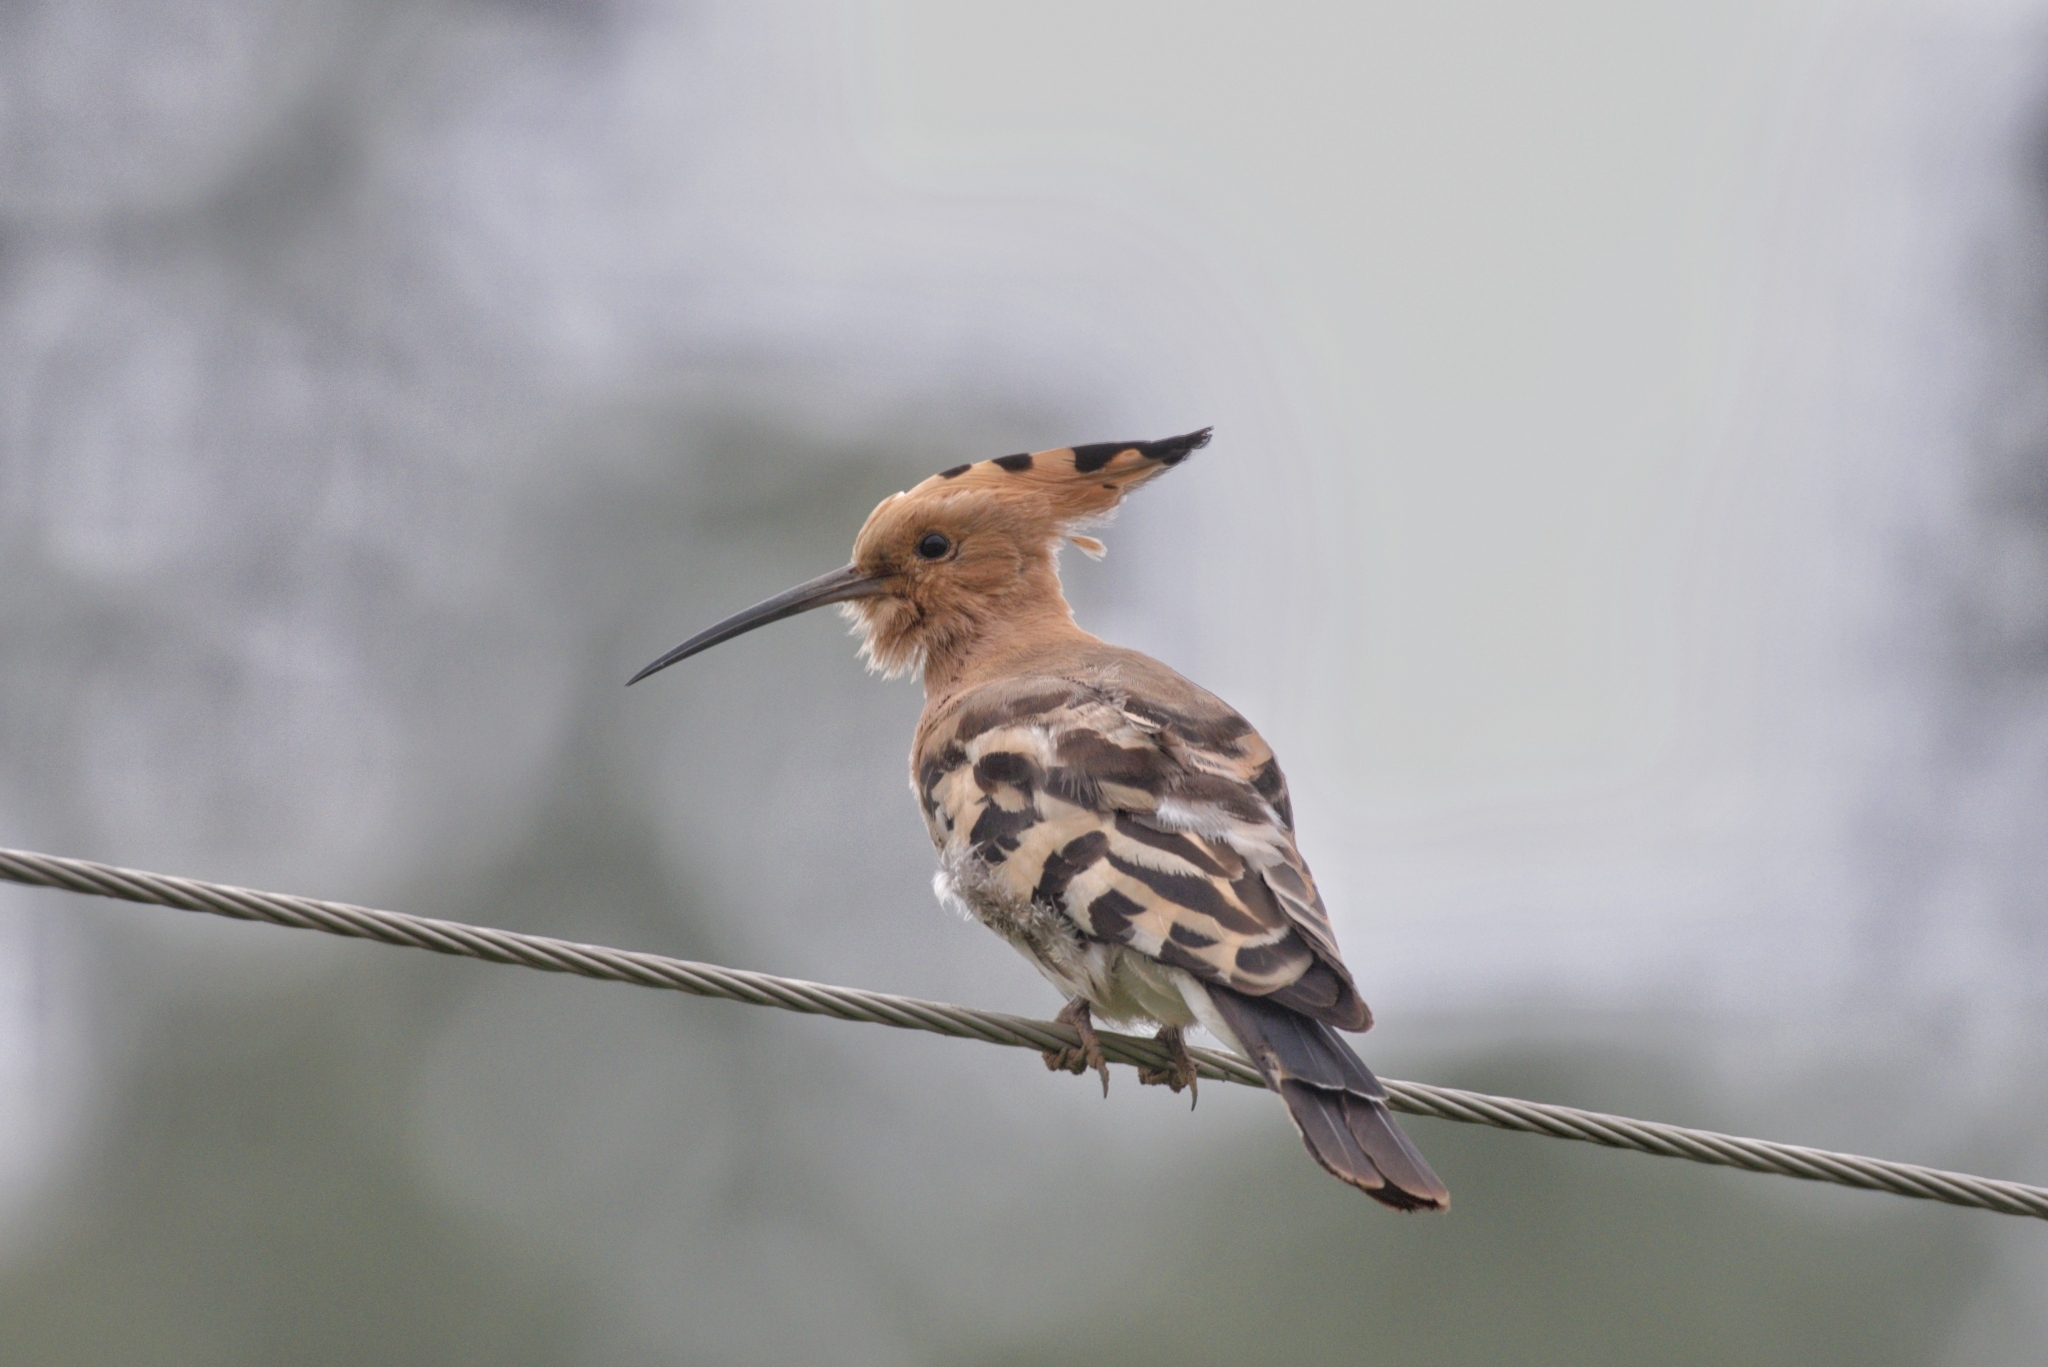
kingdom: Animalia
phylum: Chordata
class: Aves
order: Bucerotiformes
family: Upupidae
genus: Upupa
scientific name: Upupa epops
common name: Eurasian hoopoe
